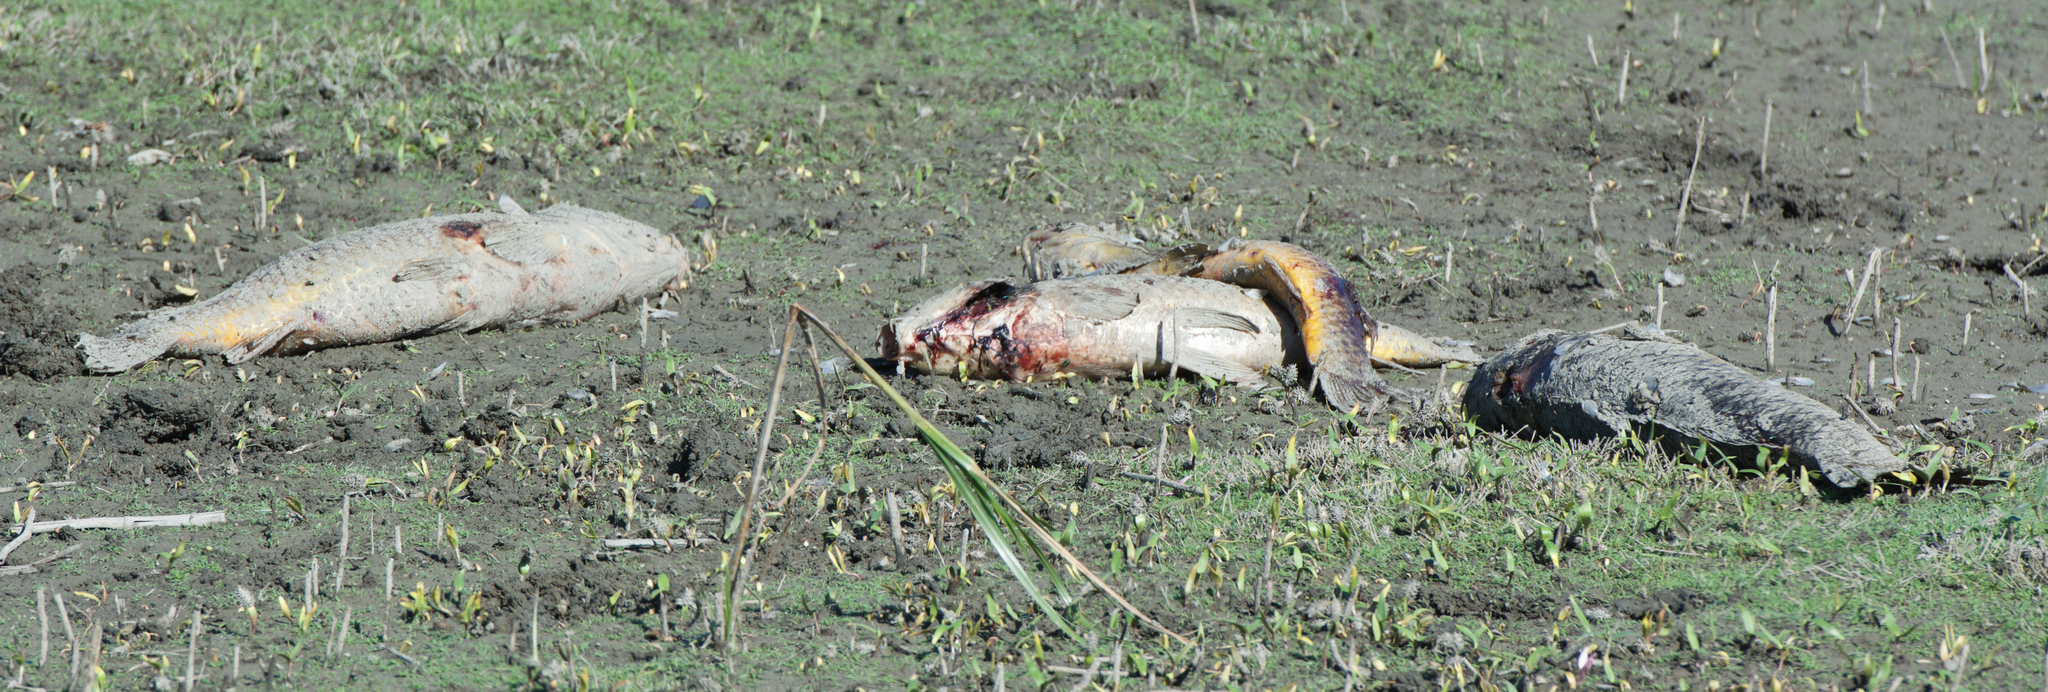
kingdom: Animalia
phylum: Chordata
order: Cypriniformes
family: Cyprinidae
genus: Cyprinus
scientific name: Cyprinus carpio
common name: Common carp
